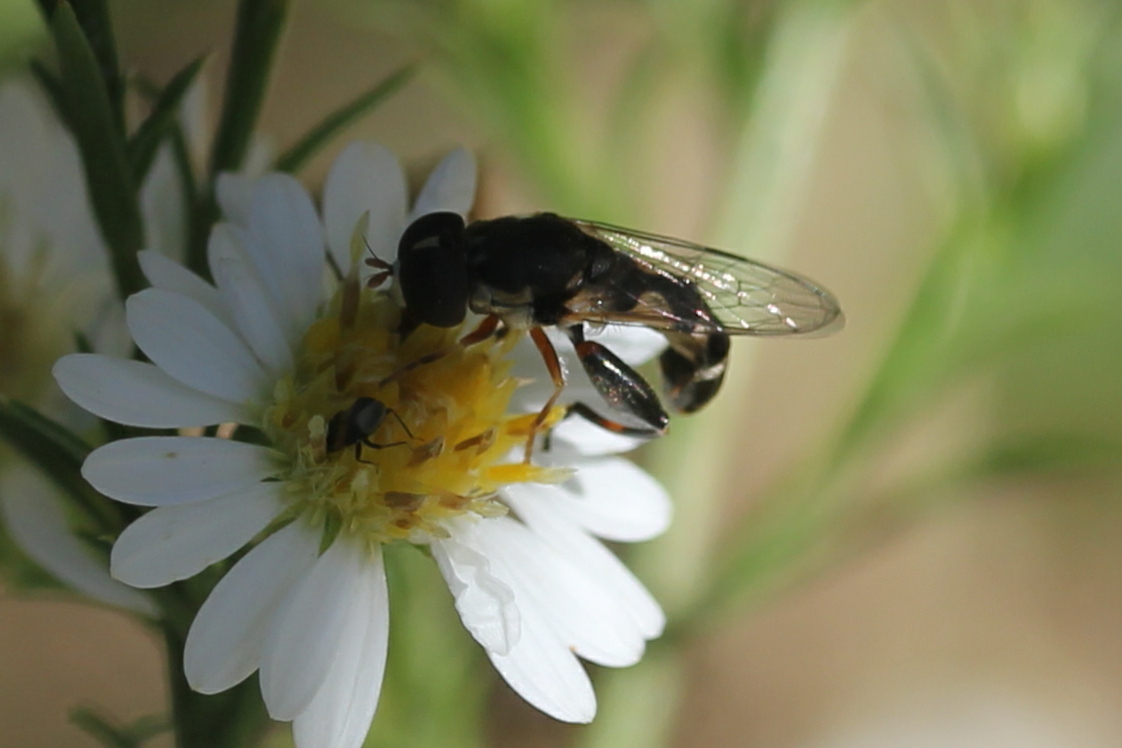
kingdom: Animalia
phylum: Arthropoda
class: Insecta
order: Diptera
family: Syrphidae
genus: Syritta
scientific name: Syritta pipiens
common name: Hover fly
